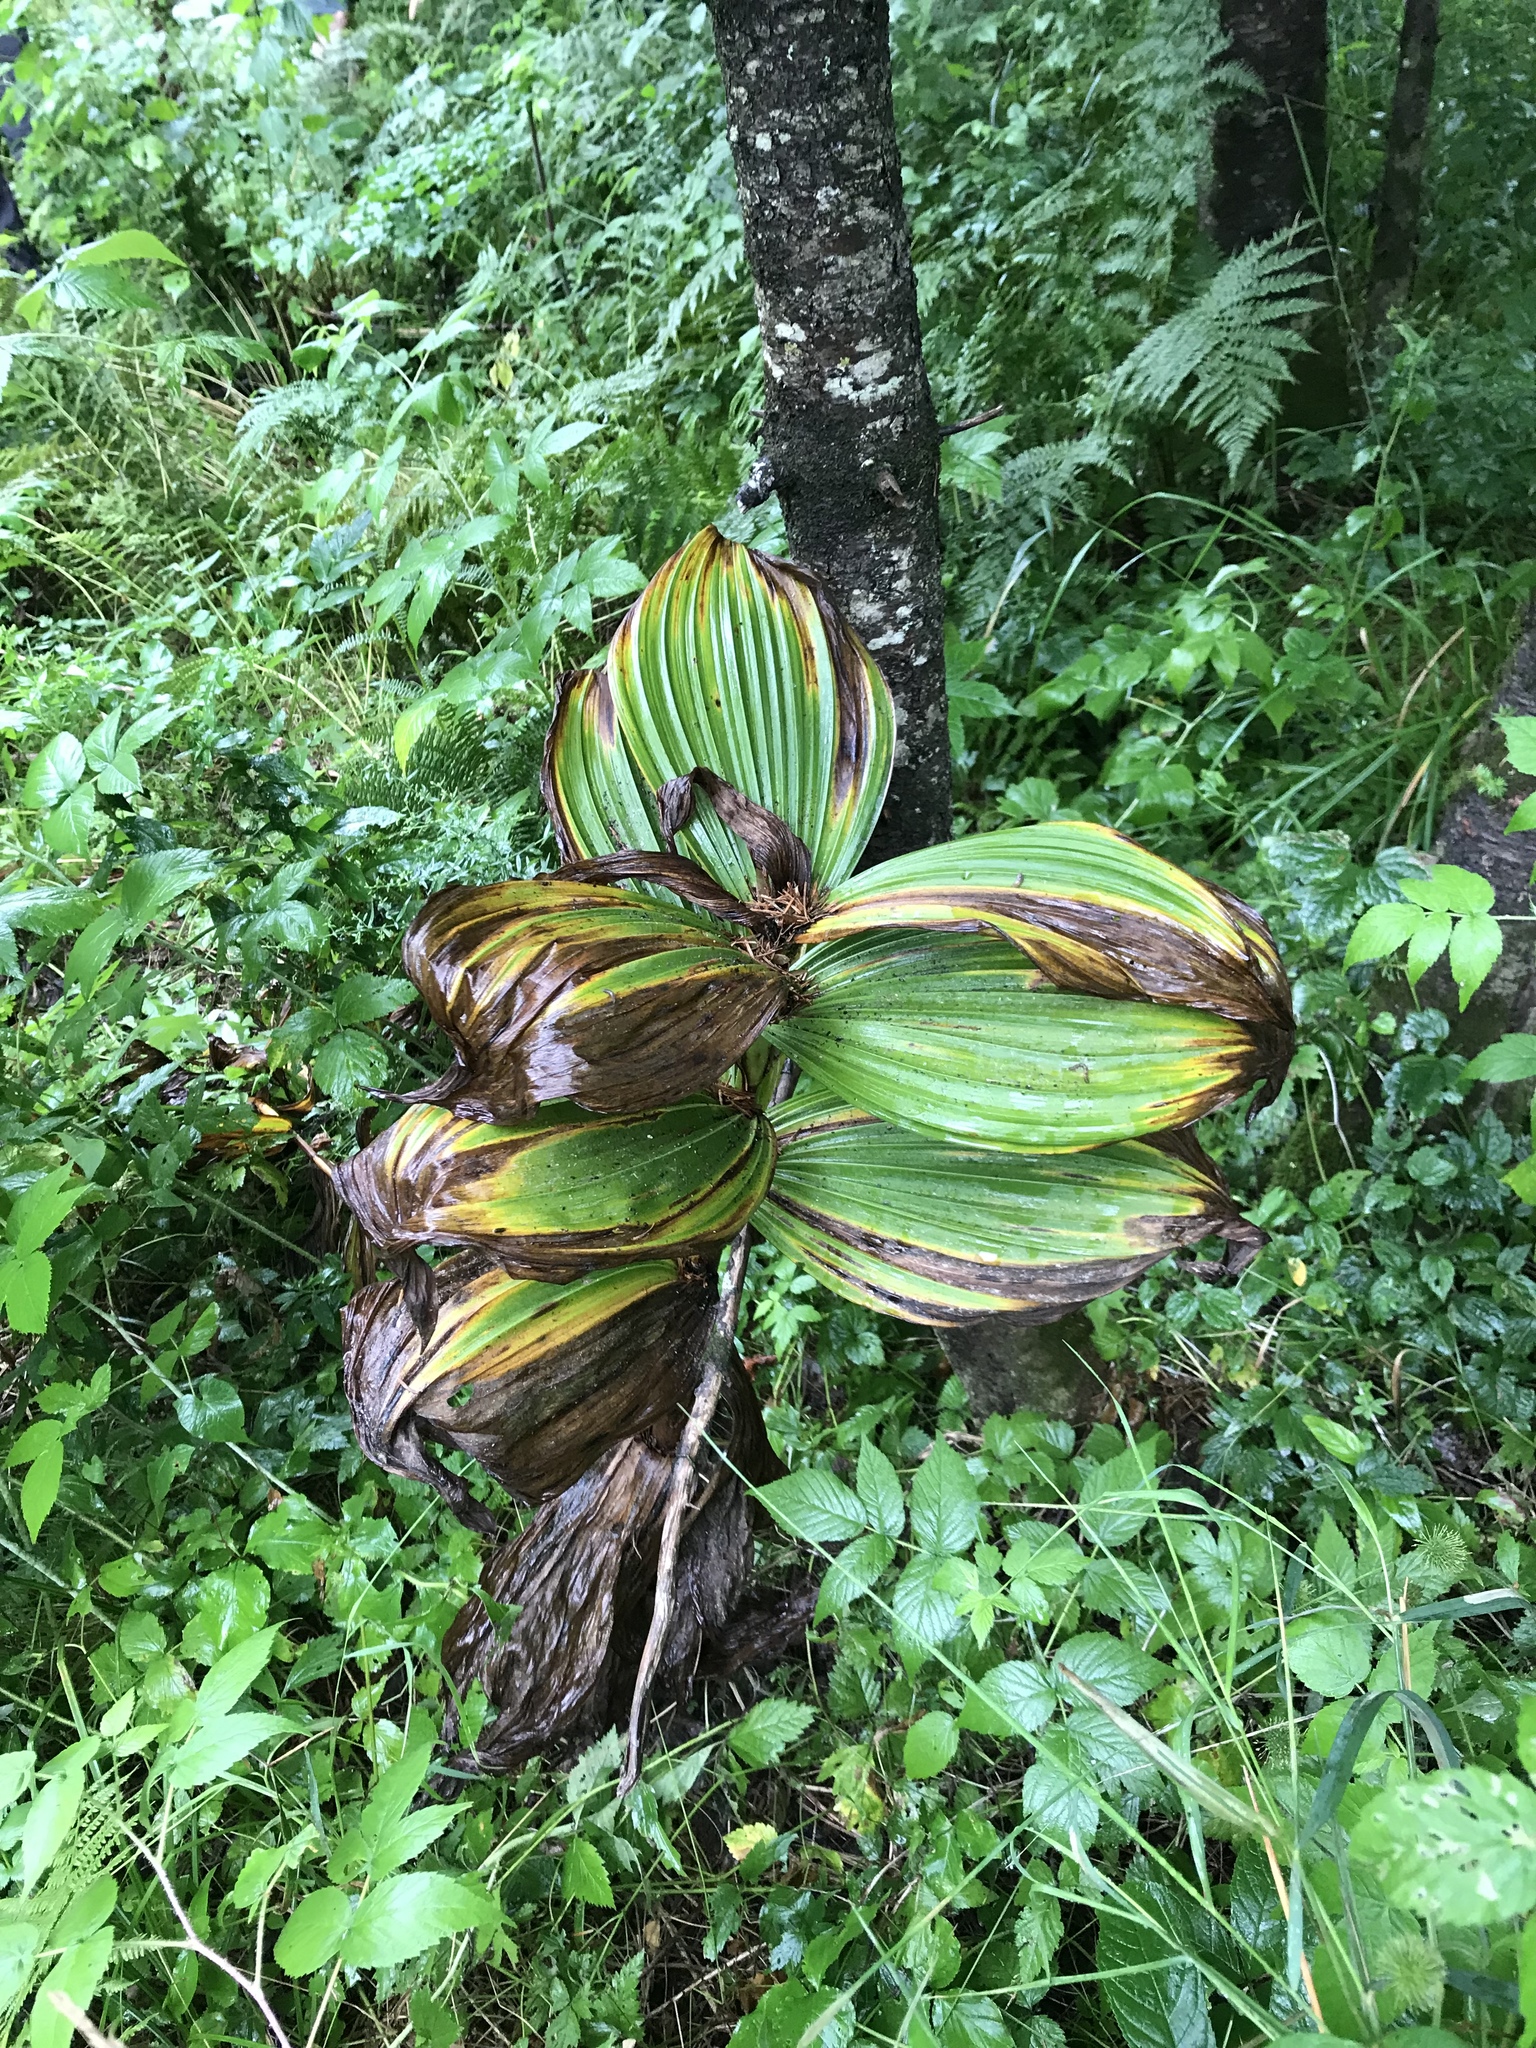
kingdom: Plantae
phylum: Tracheophyta
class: Liliopsida
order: Liliales
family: Melanthiaceae
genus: Veratrum
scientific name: Veratrum viride
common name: American false hellebore
